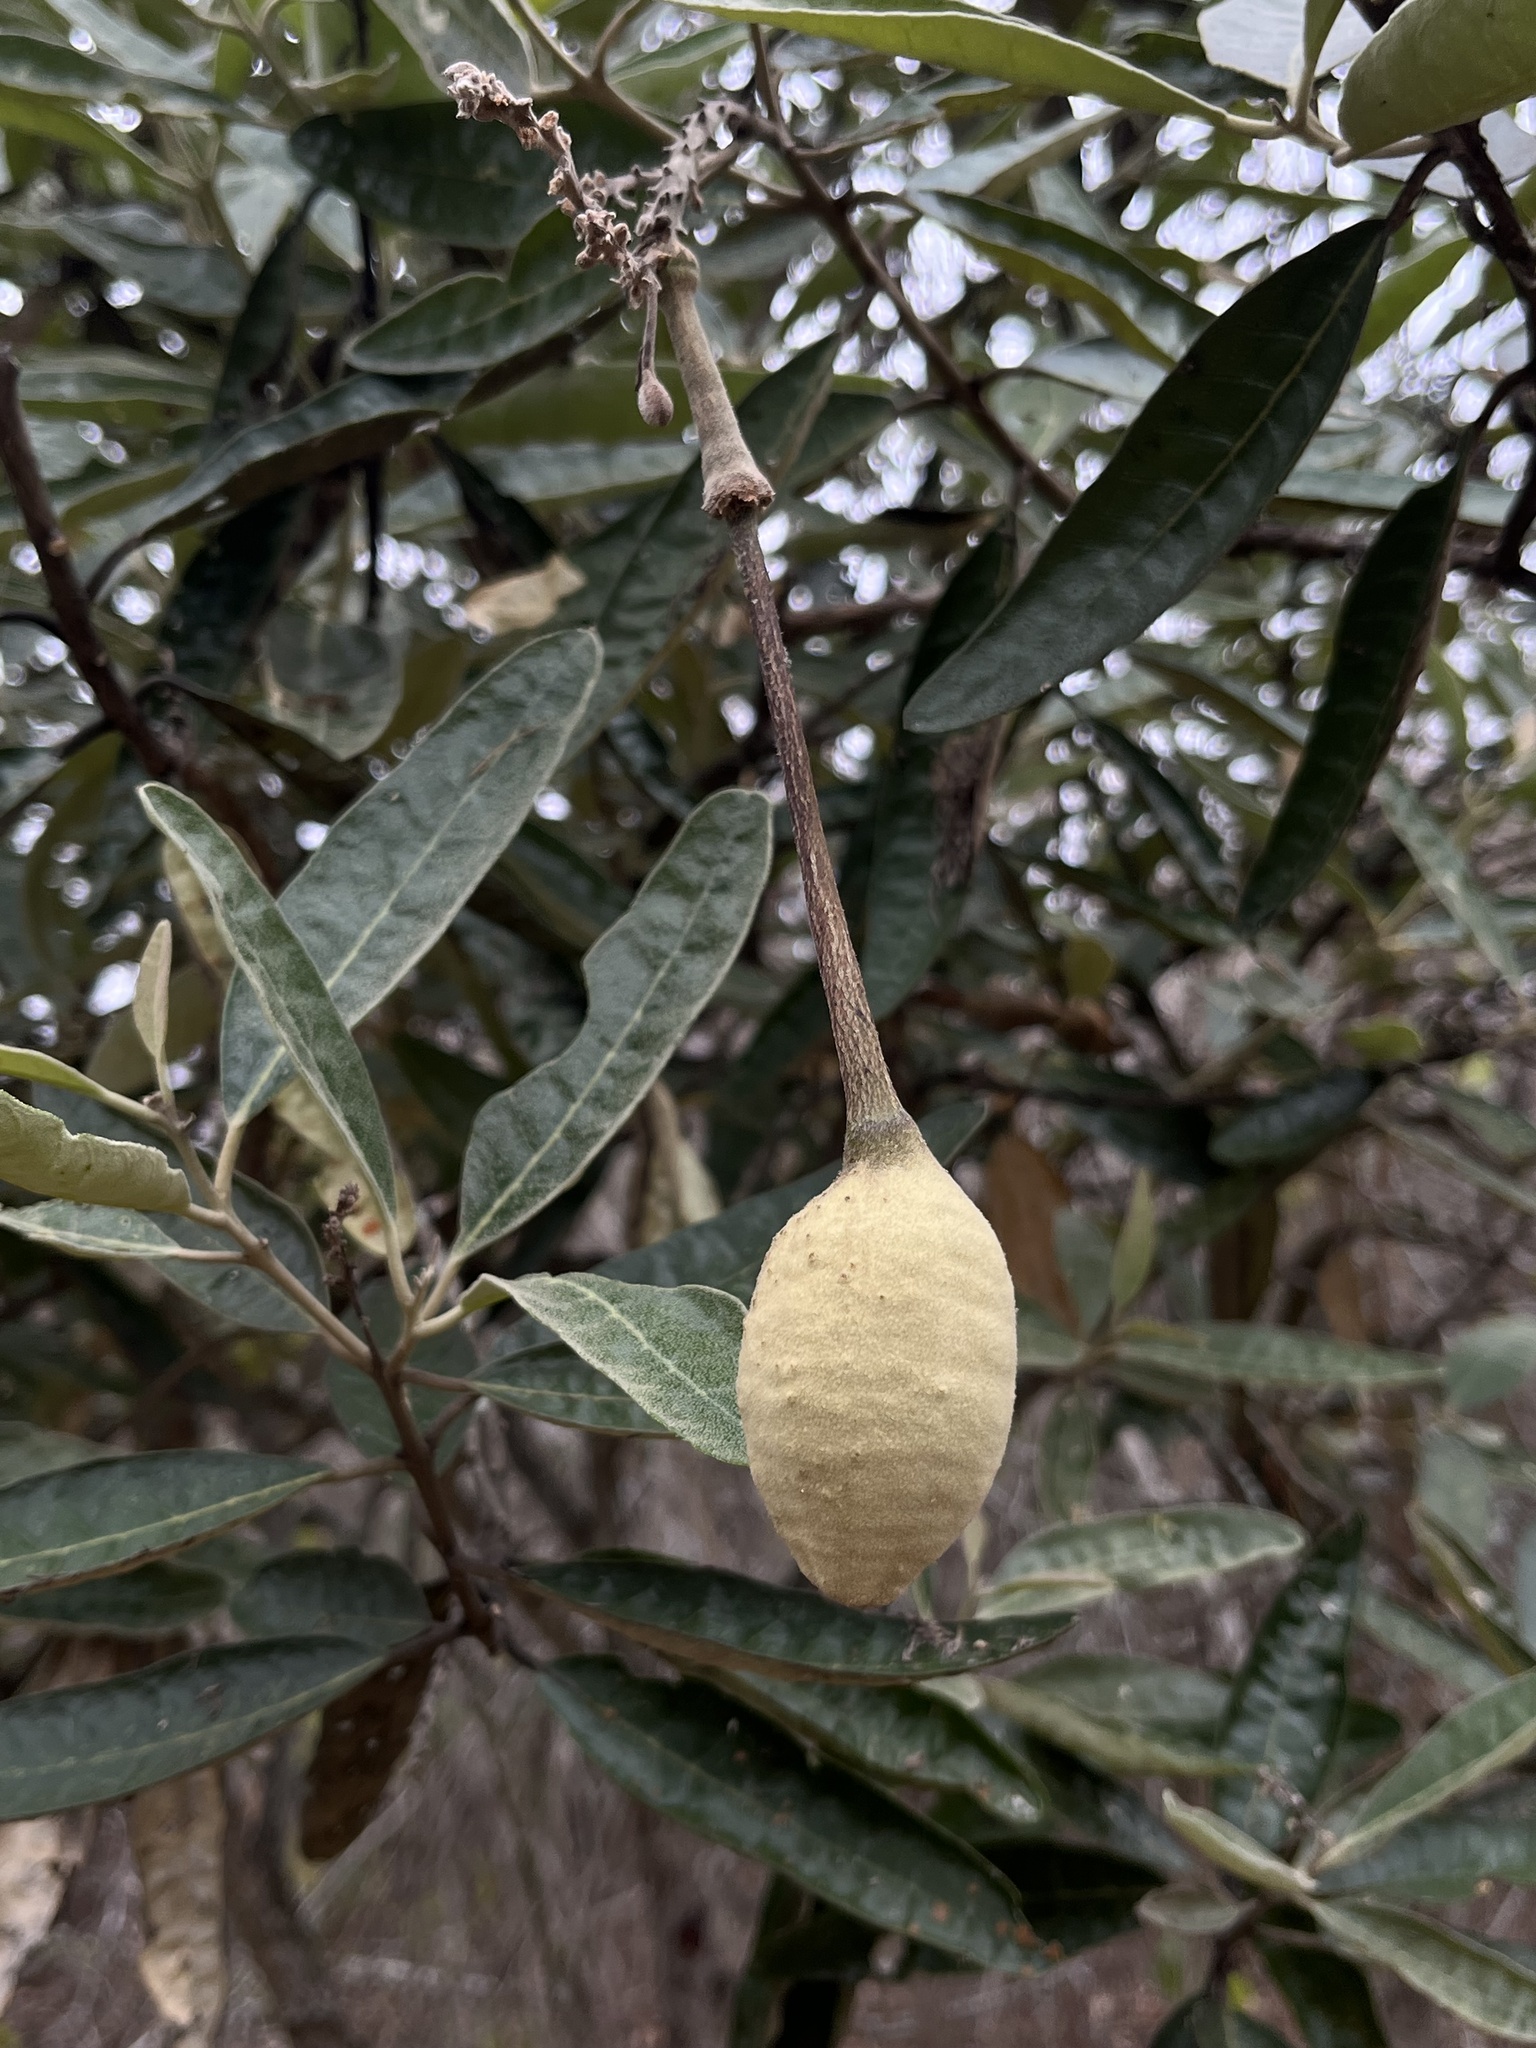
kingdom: Plantae
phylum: Tracheophyta
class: Magnoliopsida
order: Brassicales
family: Capparaceae
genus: Colicodendron
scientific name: Colicodendron scabridum
